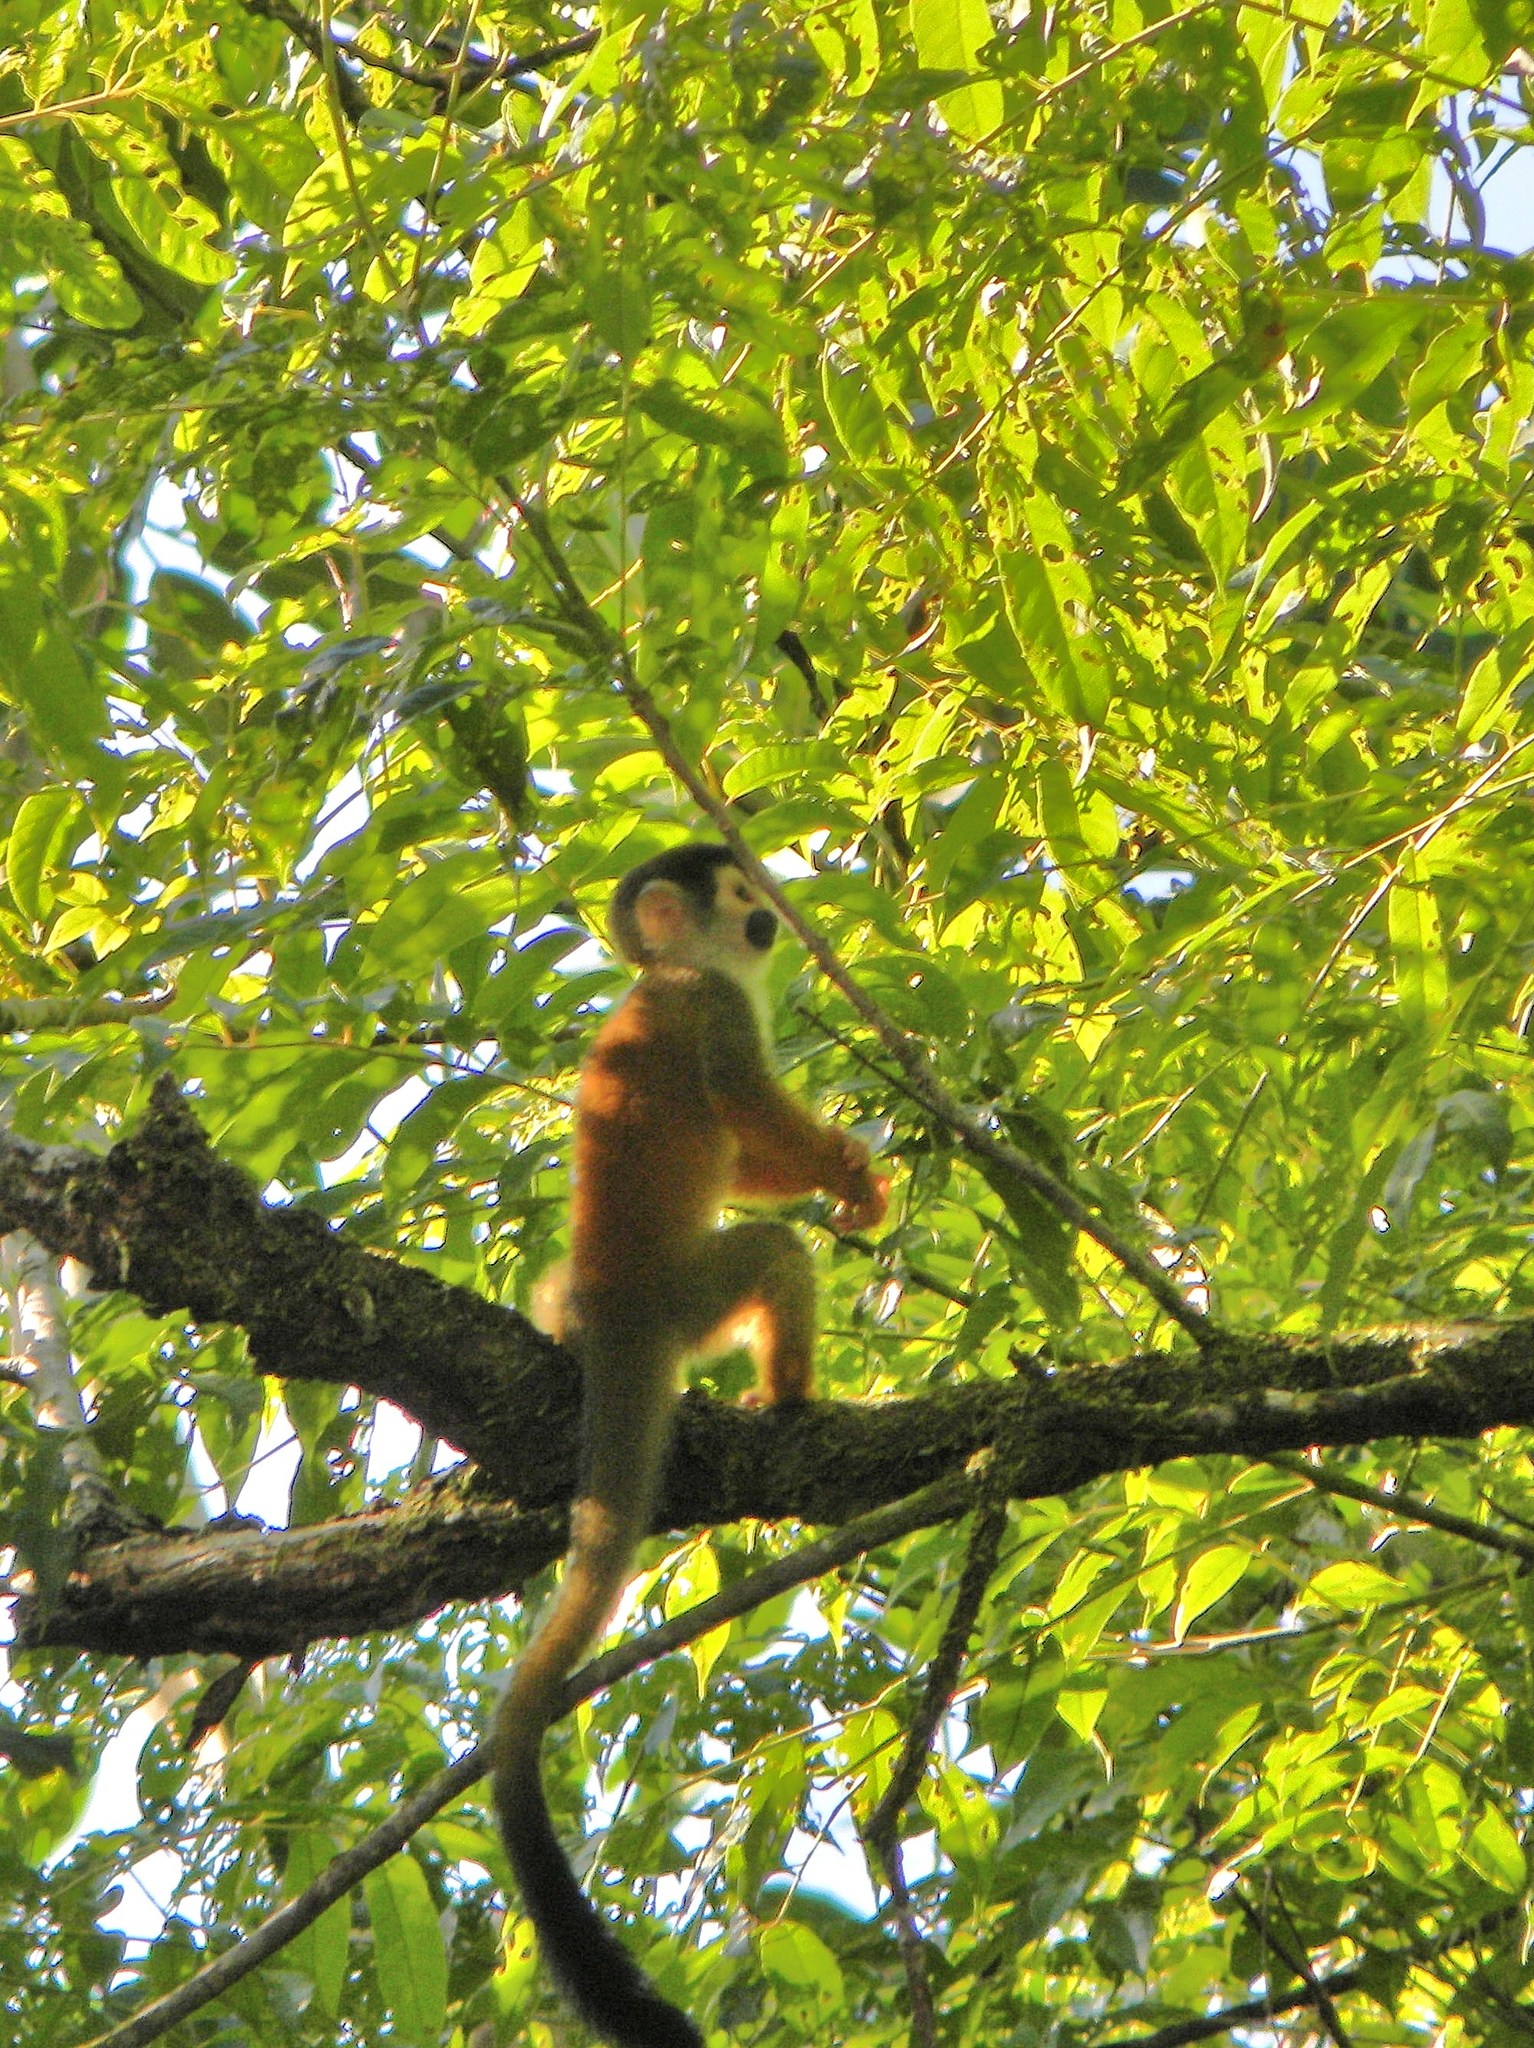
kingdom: Animalia
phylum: Chordata
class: Mammalia
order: Primates
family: Cebidae
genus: Saimiri
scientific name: Saimiri oerstedii
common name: Central american squirrel monkey
